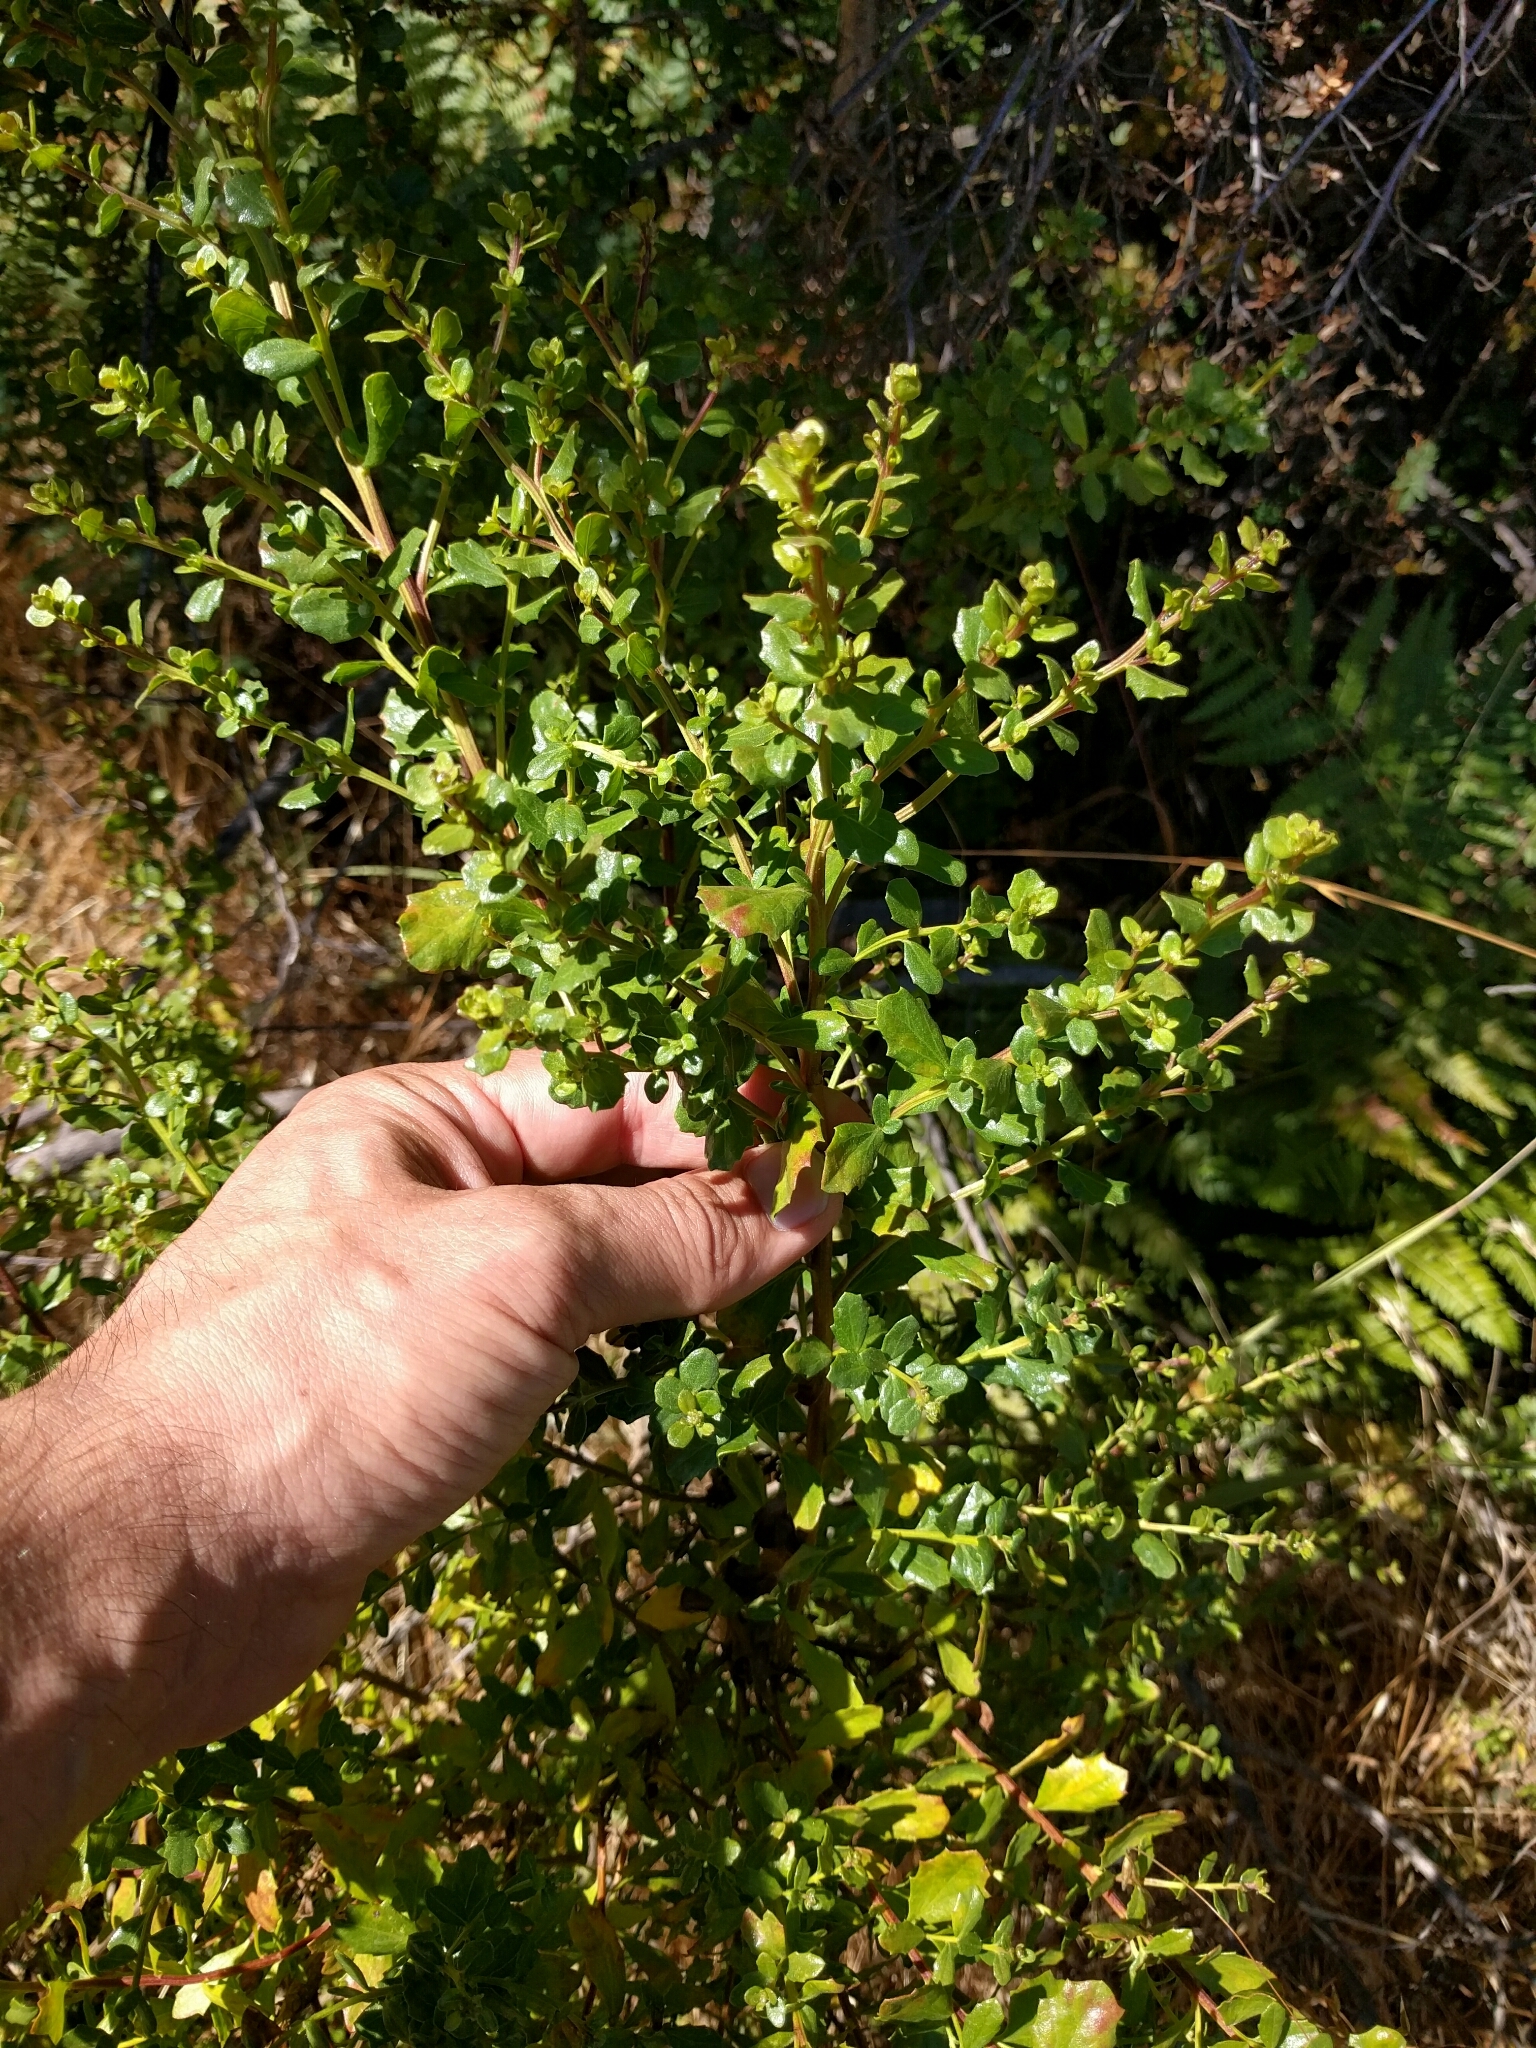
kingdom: Plantae
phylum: Tracheophyta
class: Magnoliopsida
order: Asterales
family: Asteraceae
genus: Baccharis
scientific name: Baccharis pilularis
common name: Coyotebrush
